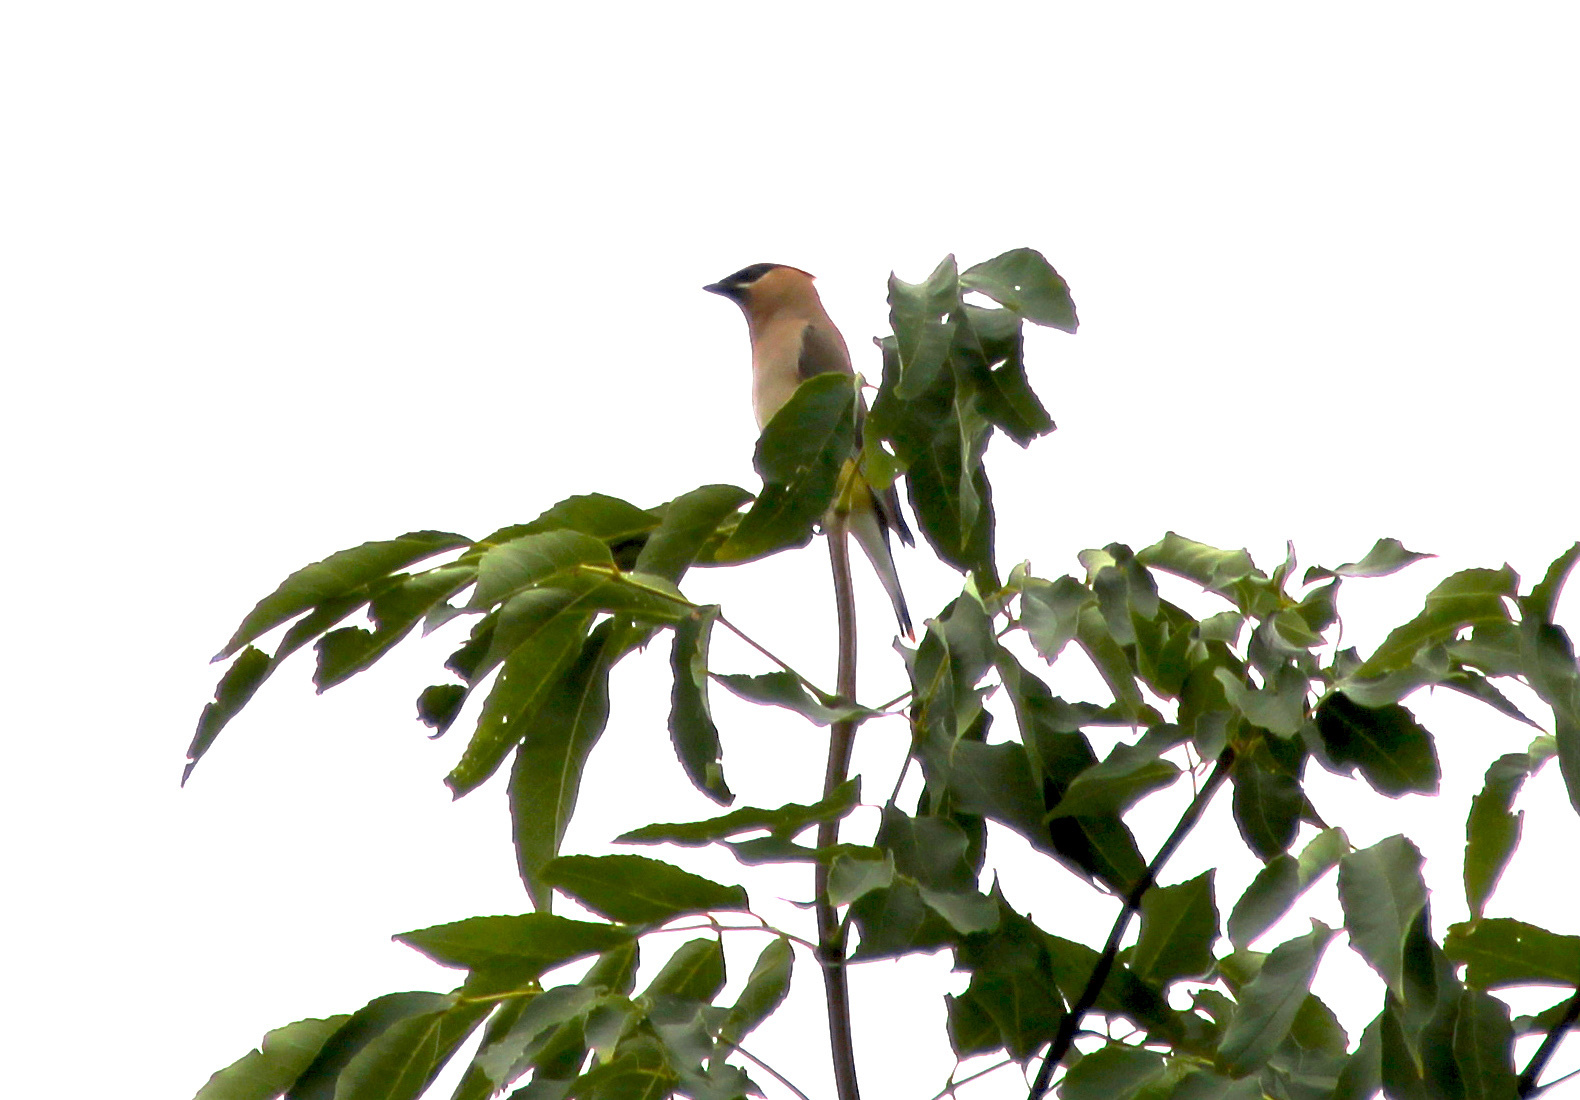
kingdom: Animalia
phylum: Chordata
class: Aves
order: Passeriformes
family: Bombycillidae
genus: Bombycilla
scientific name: Bombycilla cedrorum
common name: Cedar waxwing
